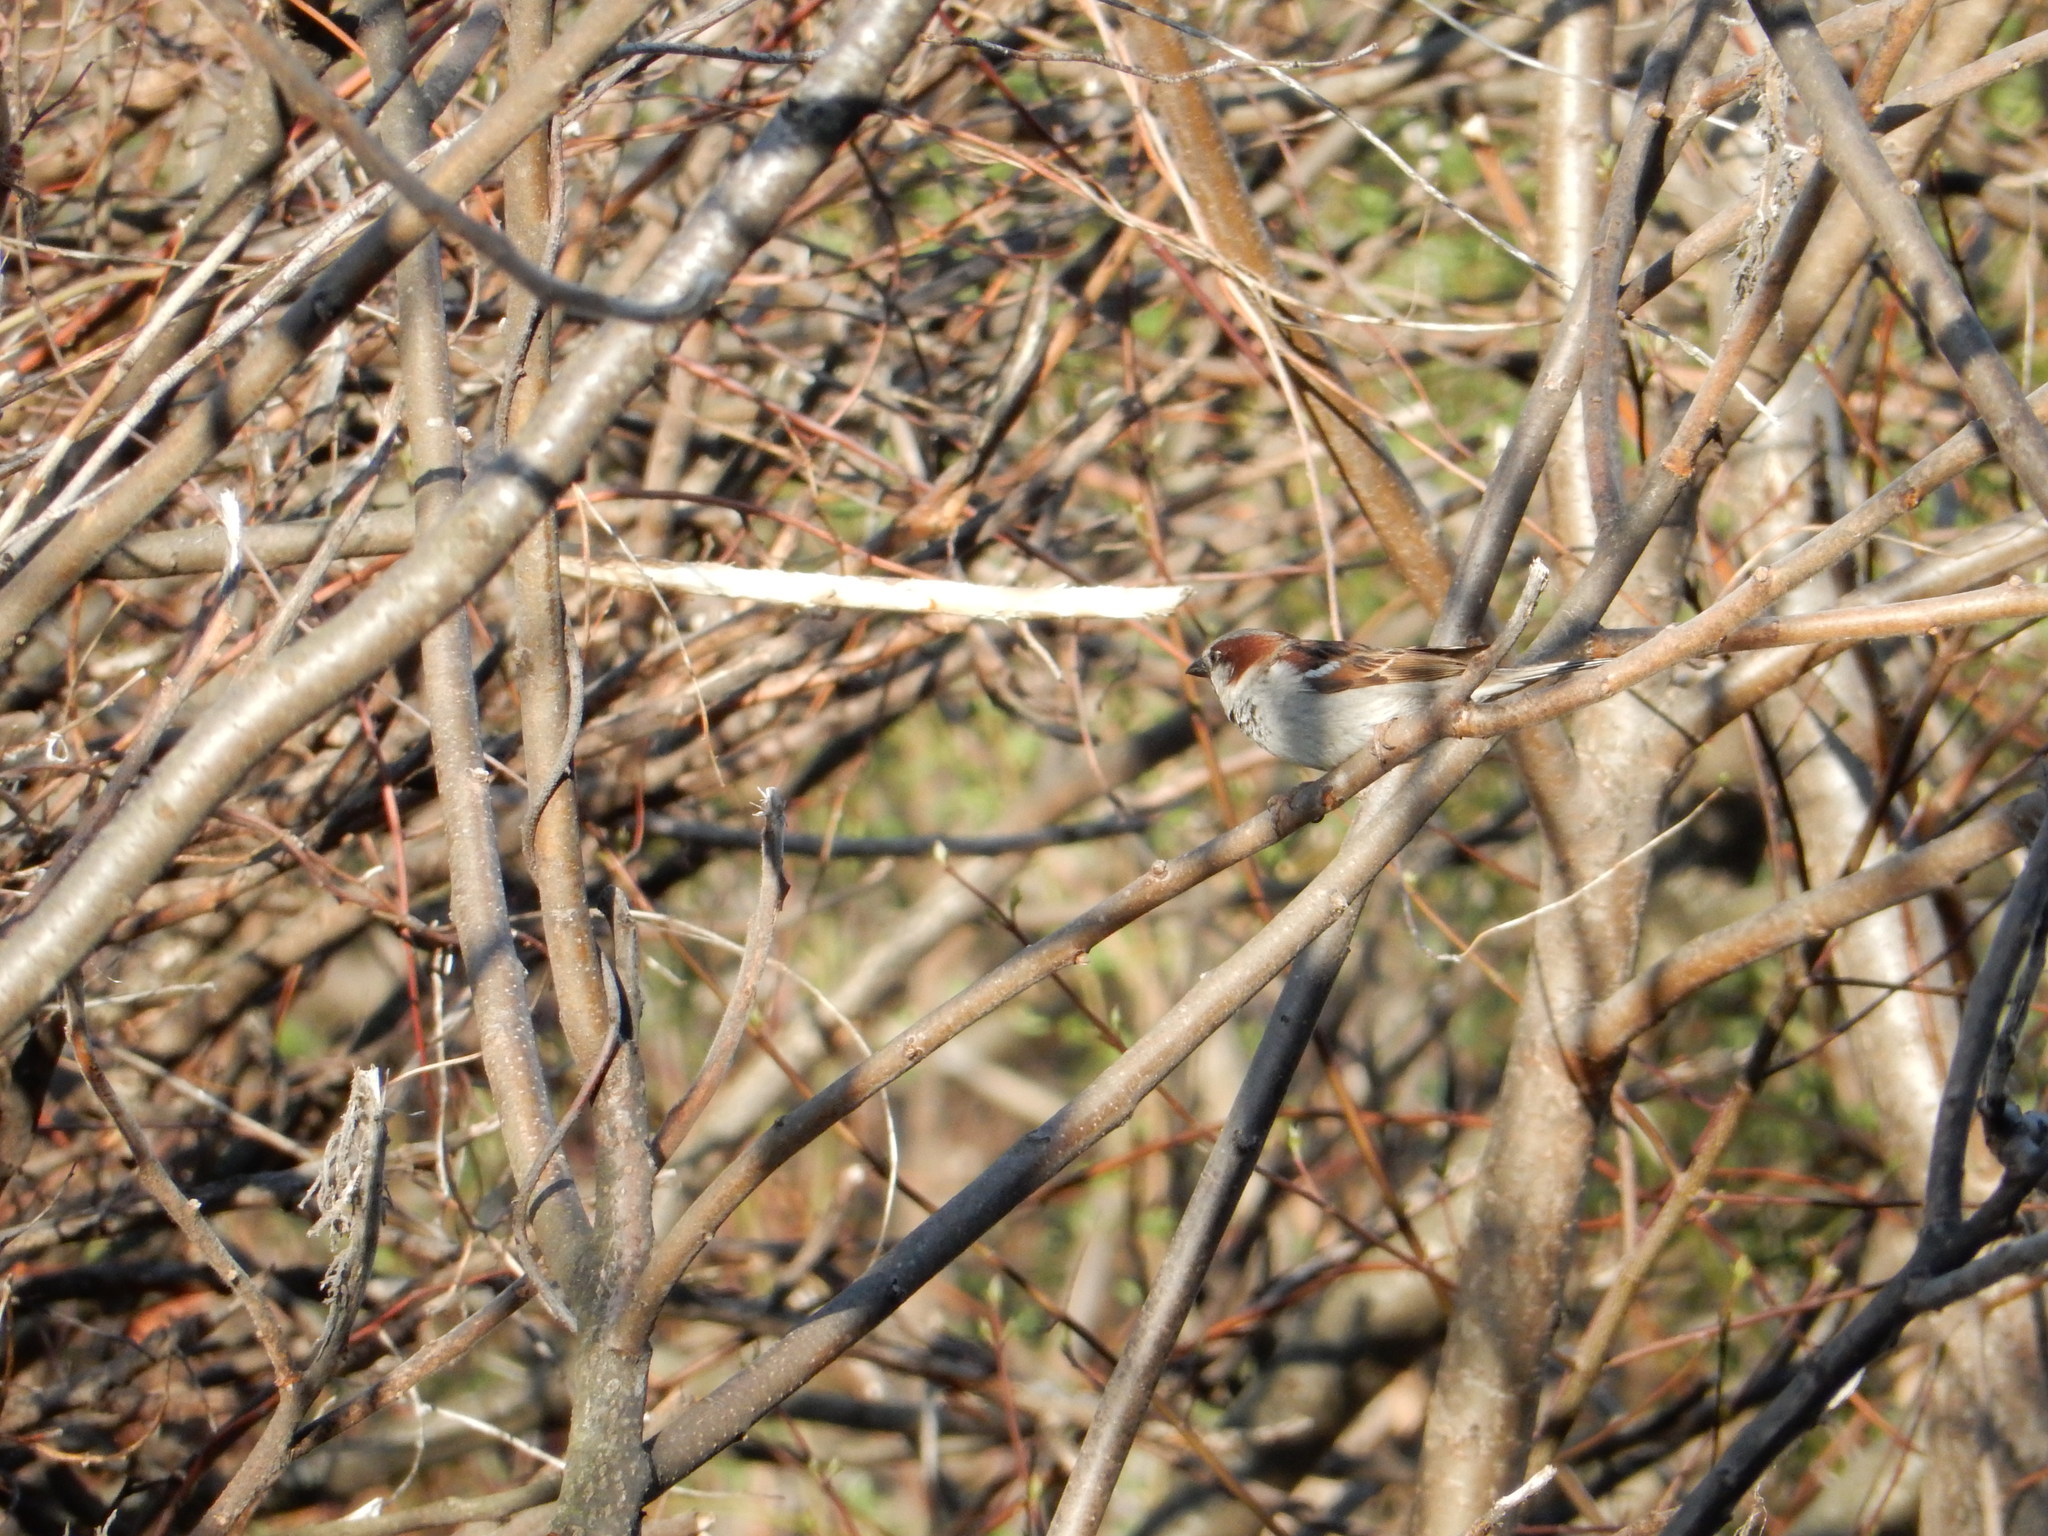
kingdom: Animalia
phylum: Chordata
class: Aves
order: Passeriformes
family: Passeridae
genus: Passer
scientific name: Passer domesticus
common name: House sparrow
